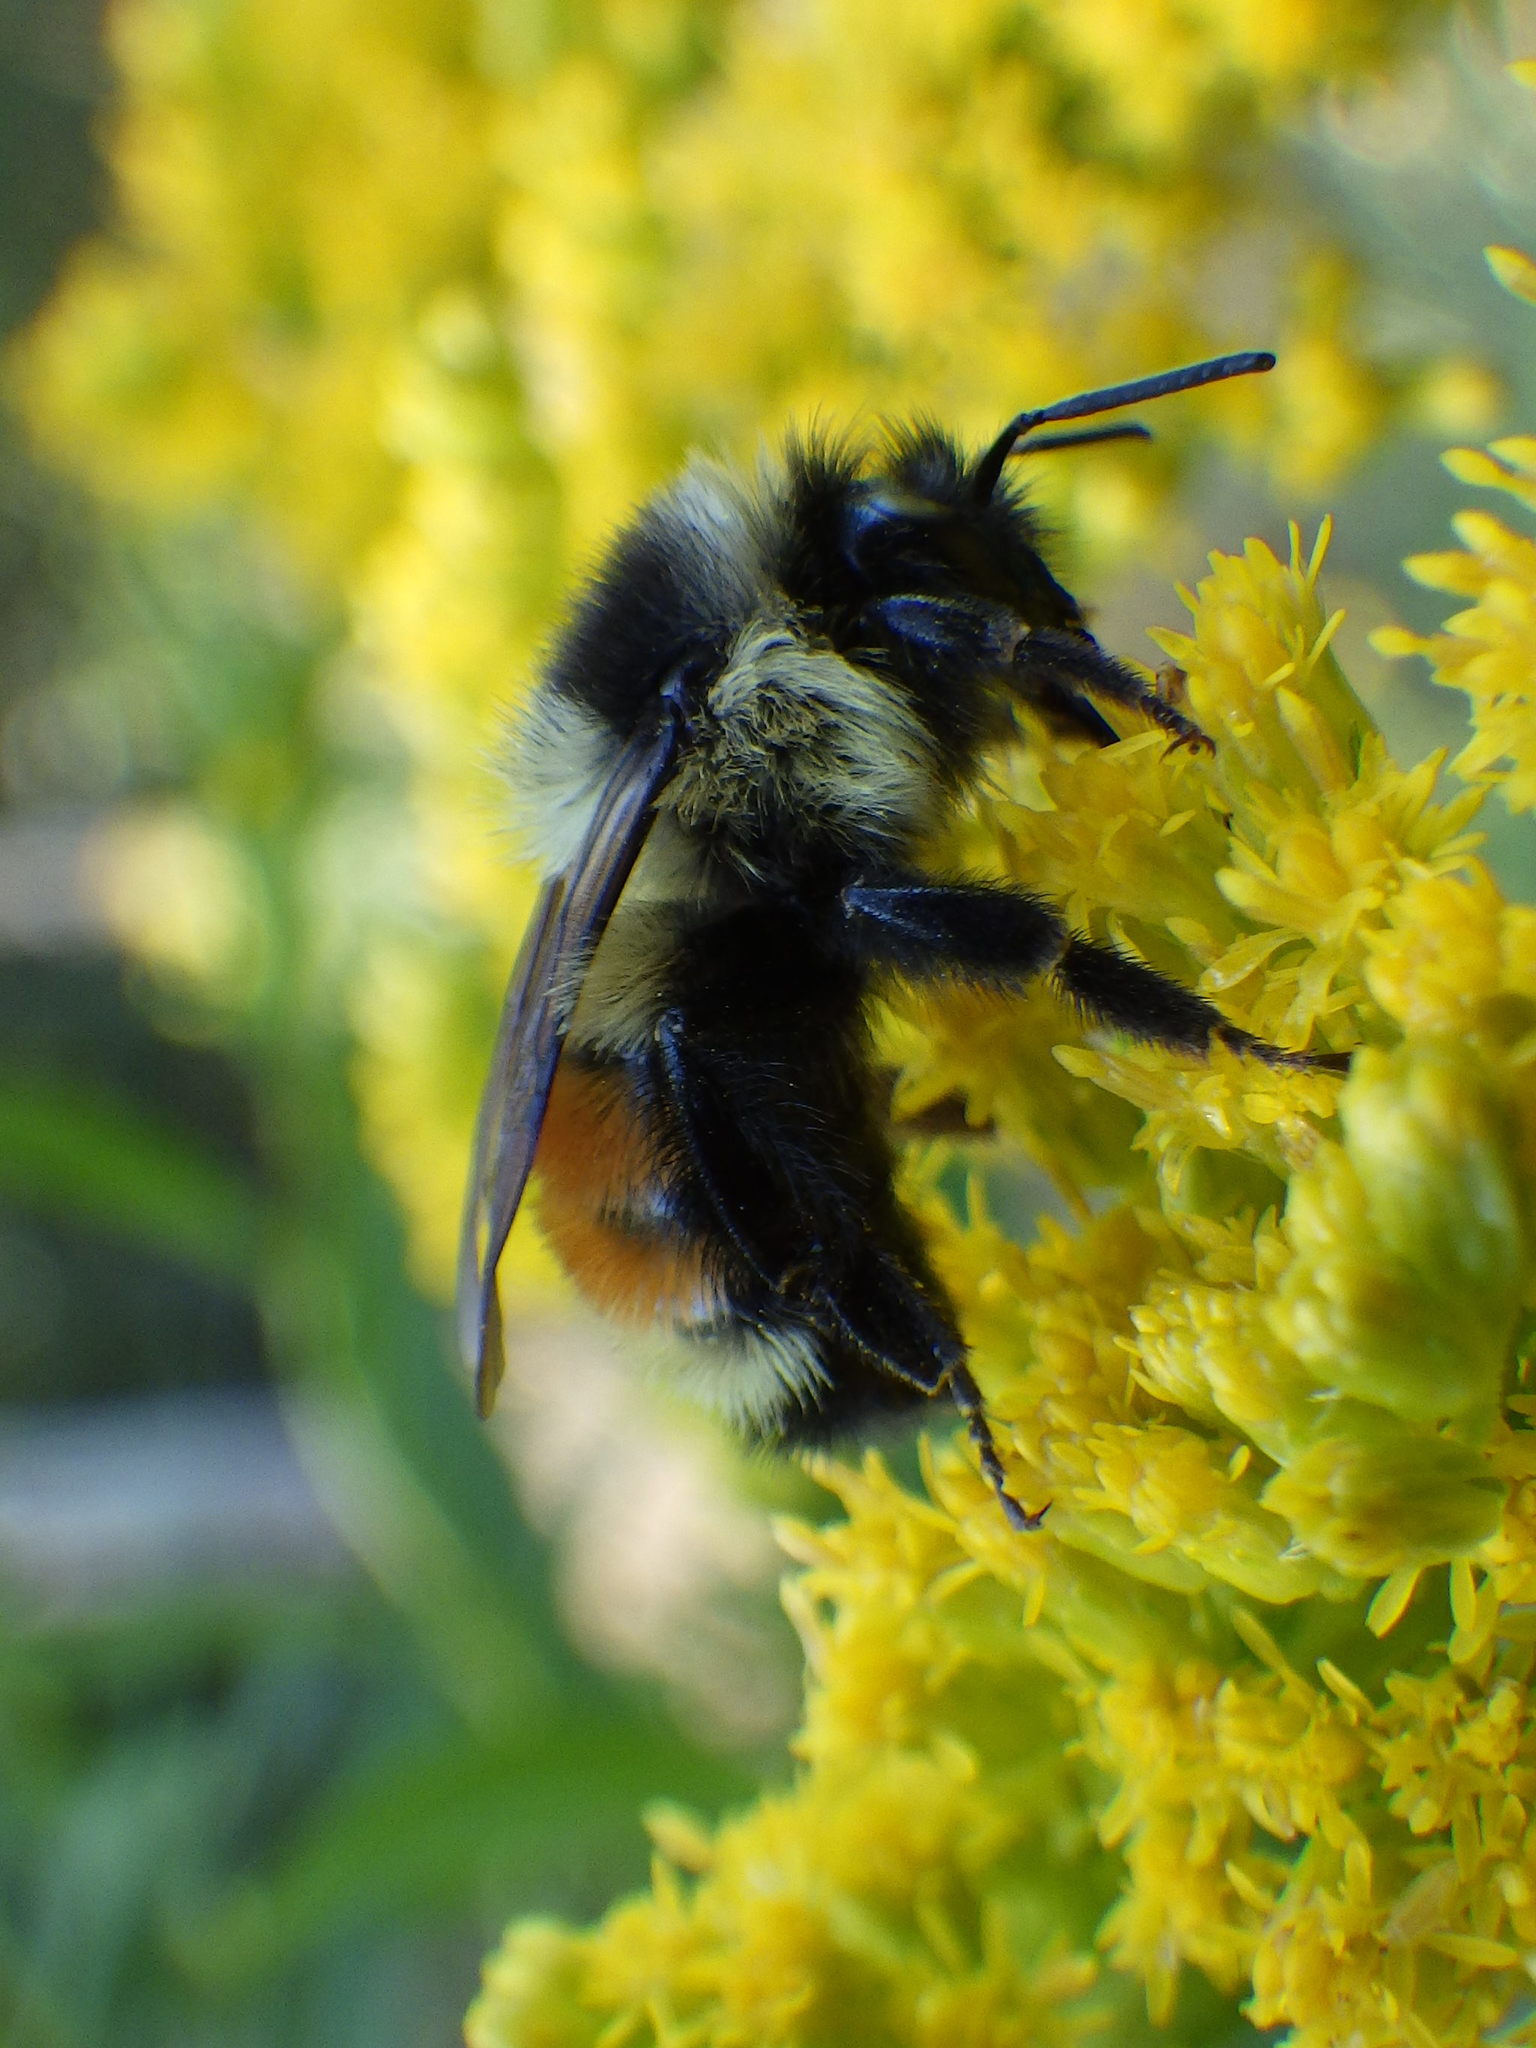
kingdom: Animalia
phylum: Arthropoda
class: Insecta
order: Hymenoptera
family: Apidae
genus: Bombus
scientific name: Bombus ternarius
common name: Tri-colored bumble bee
